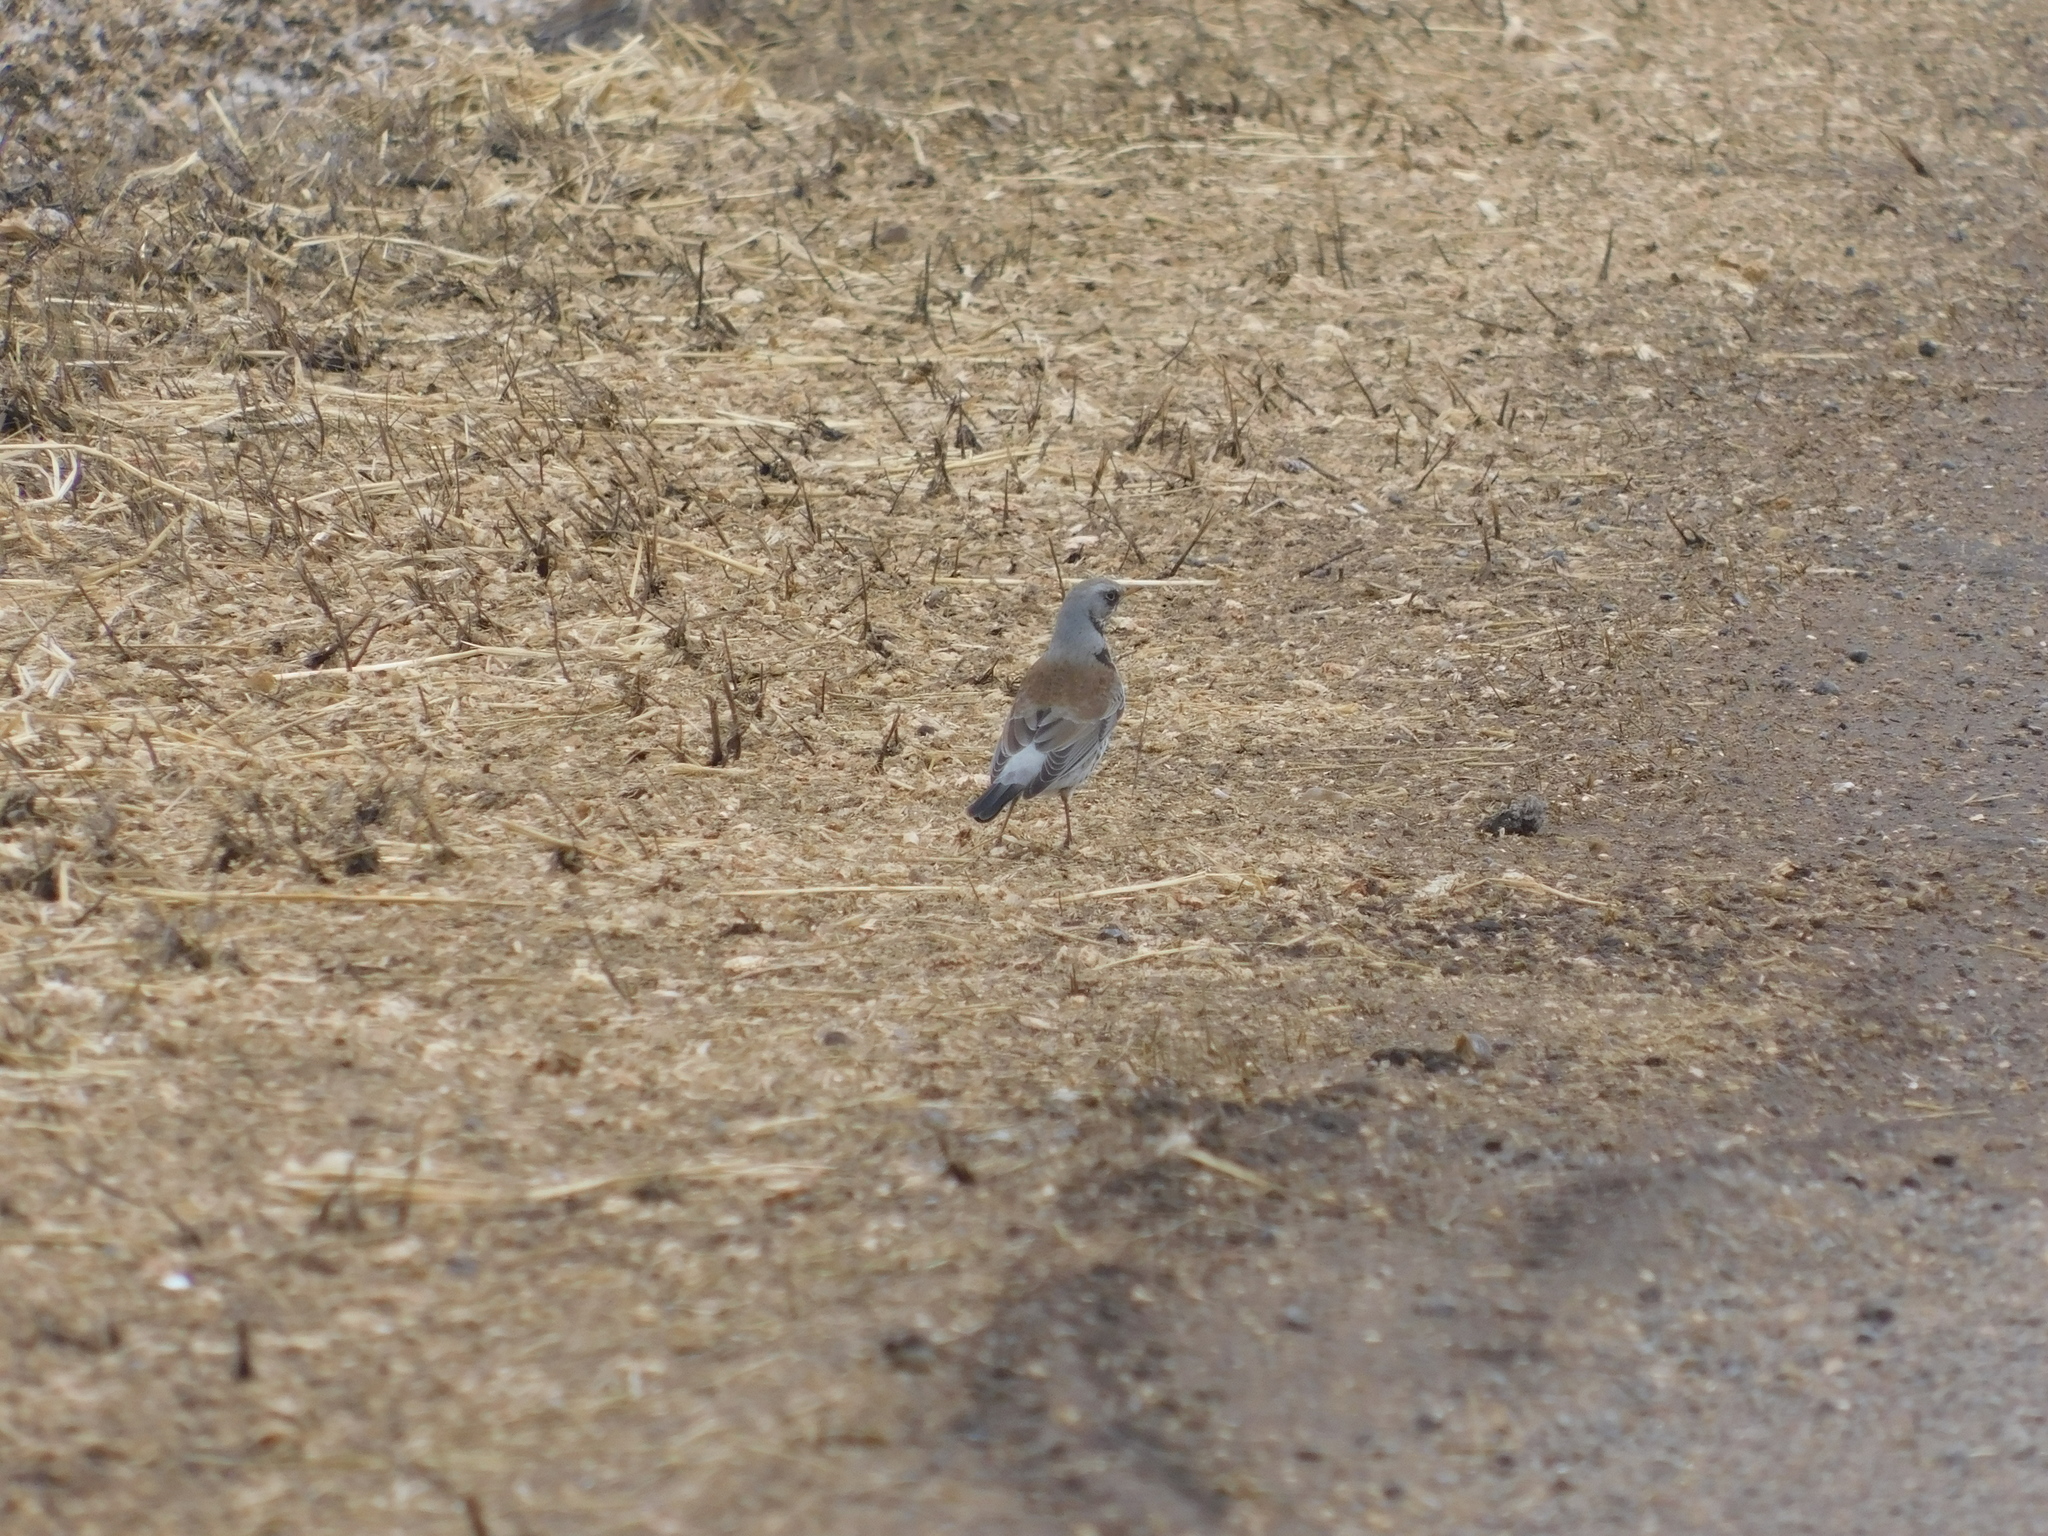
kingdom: Animalia
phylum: Chordata
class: Aves
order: Passeriformes
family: Turdidae
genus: Turdus
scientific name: Turdus pilaris
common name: Fieldfare
